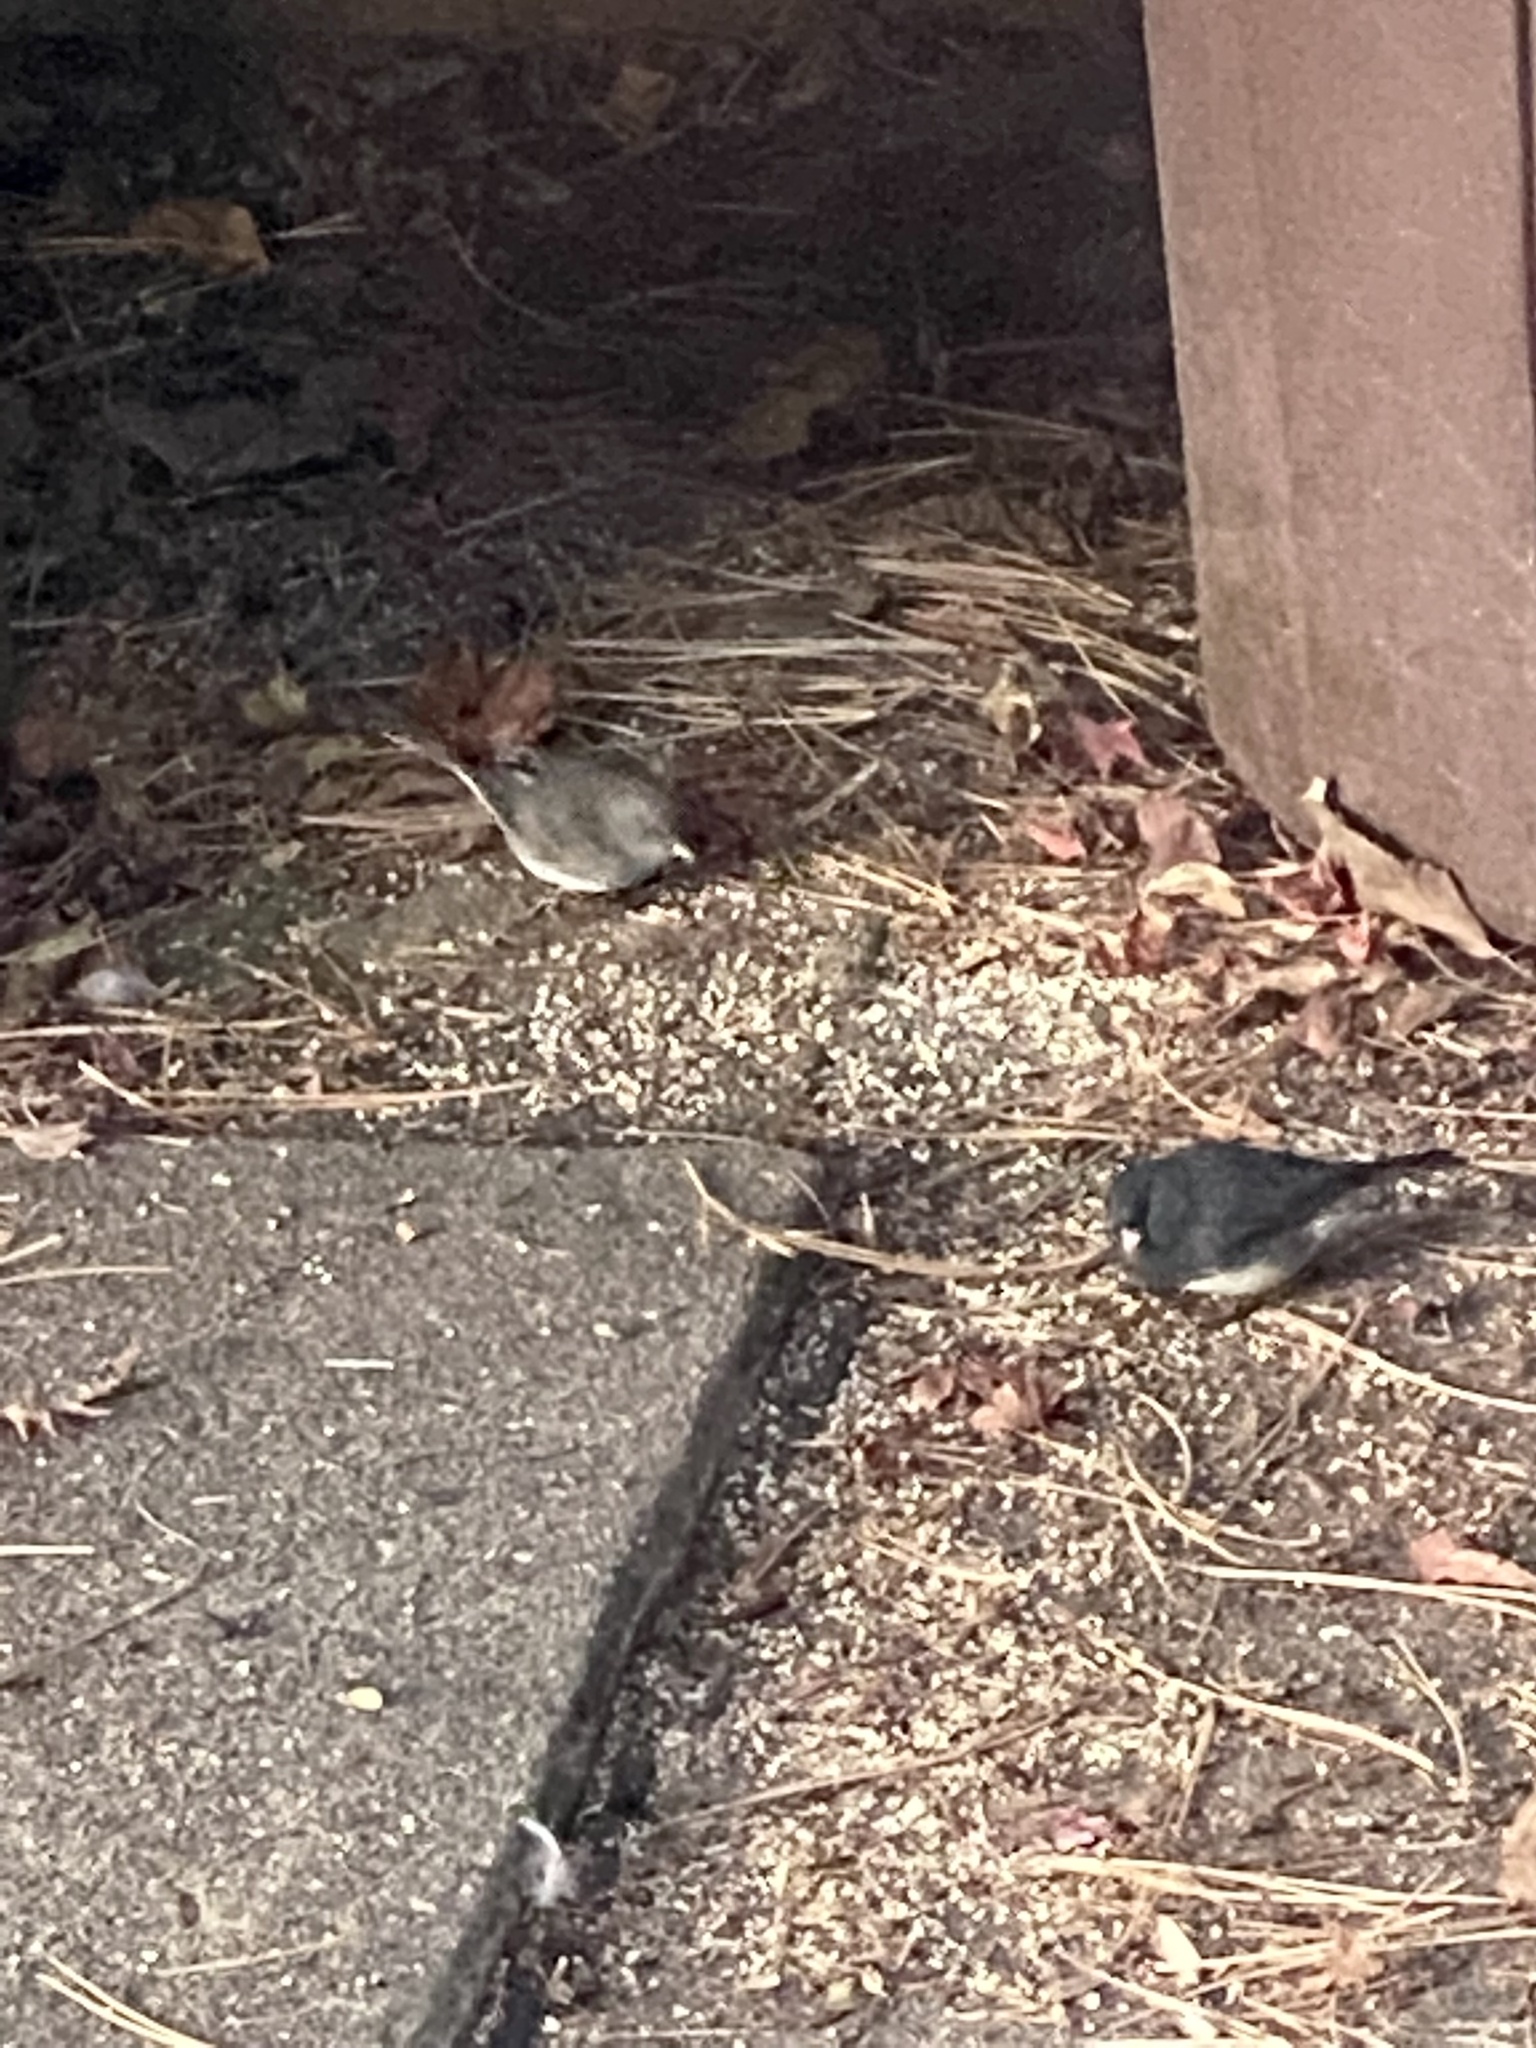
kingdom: Animalia
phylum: Chordata
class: Aves
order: Passeriformes
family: Passerellidae
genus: Junco
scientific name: Junco hyemalis
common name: Dark-eyed junco
